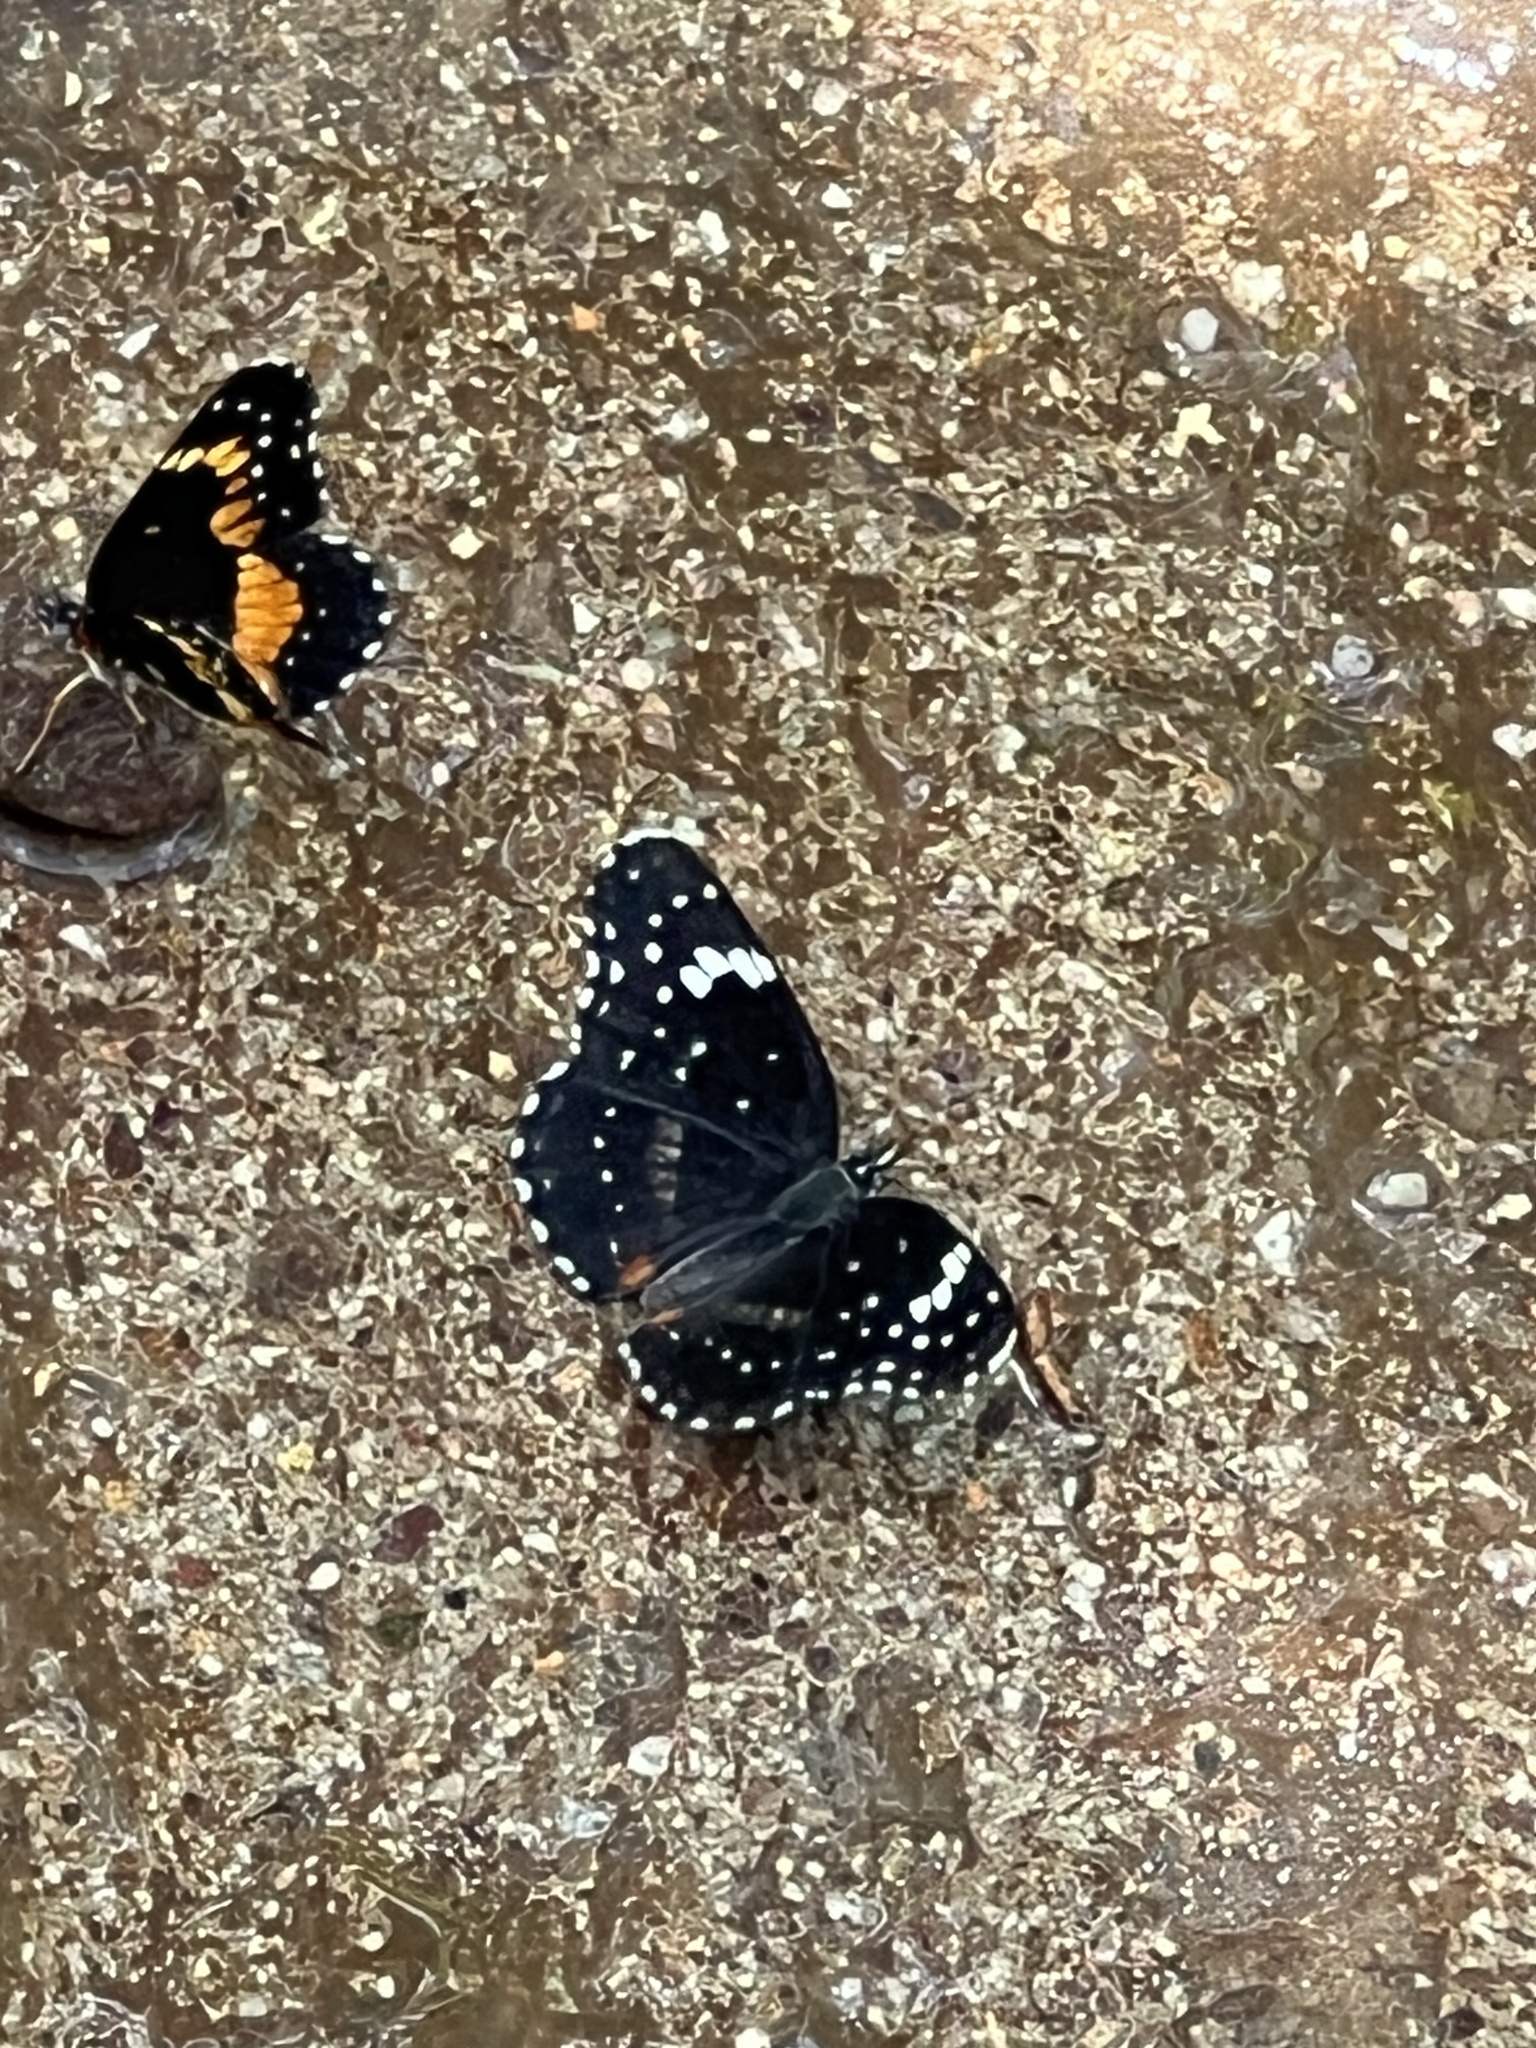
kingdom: Animalia
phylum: Arthropoda
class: Insecta
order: Lepidoptera
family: Nymphalidae
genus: Chlosyne
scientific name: Chlosyne lacinia
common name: Bordered patch
